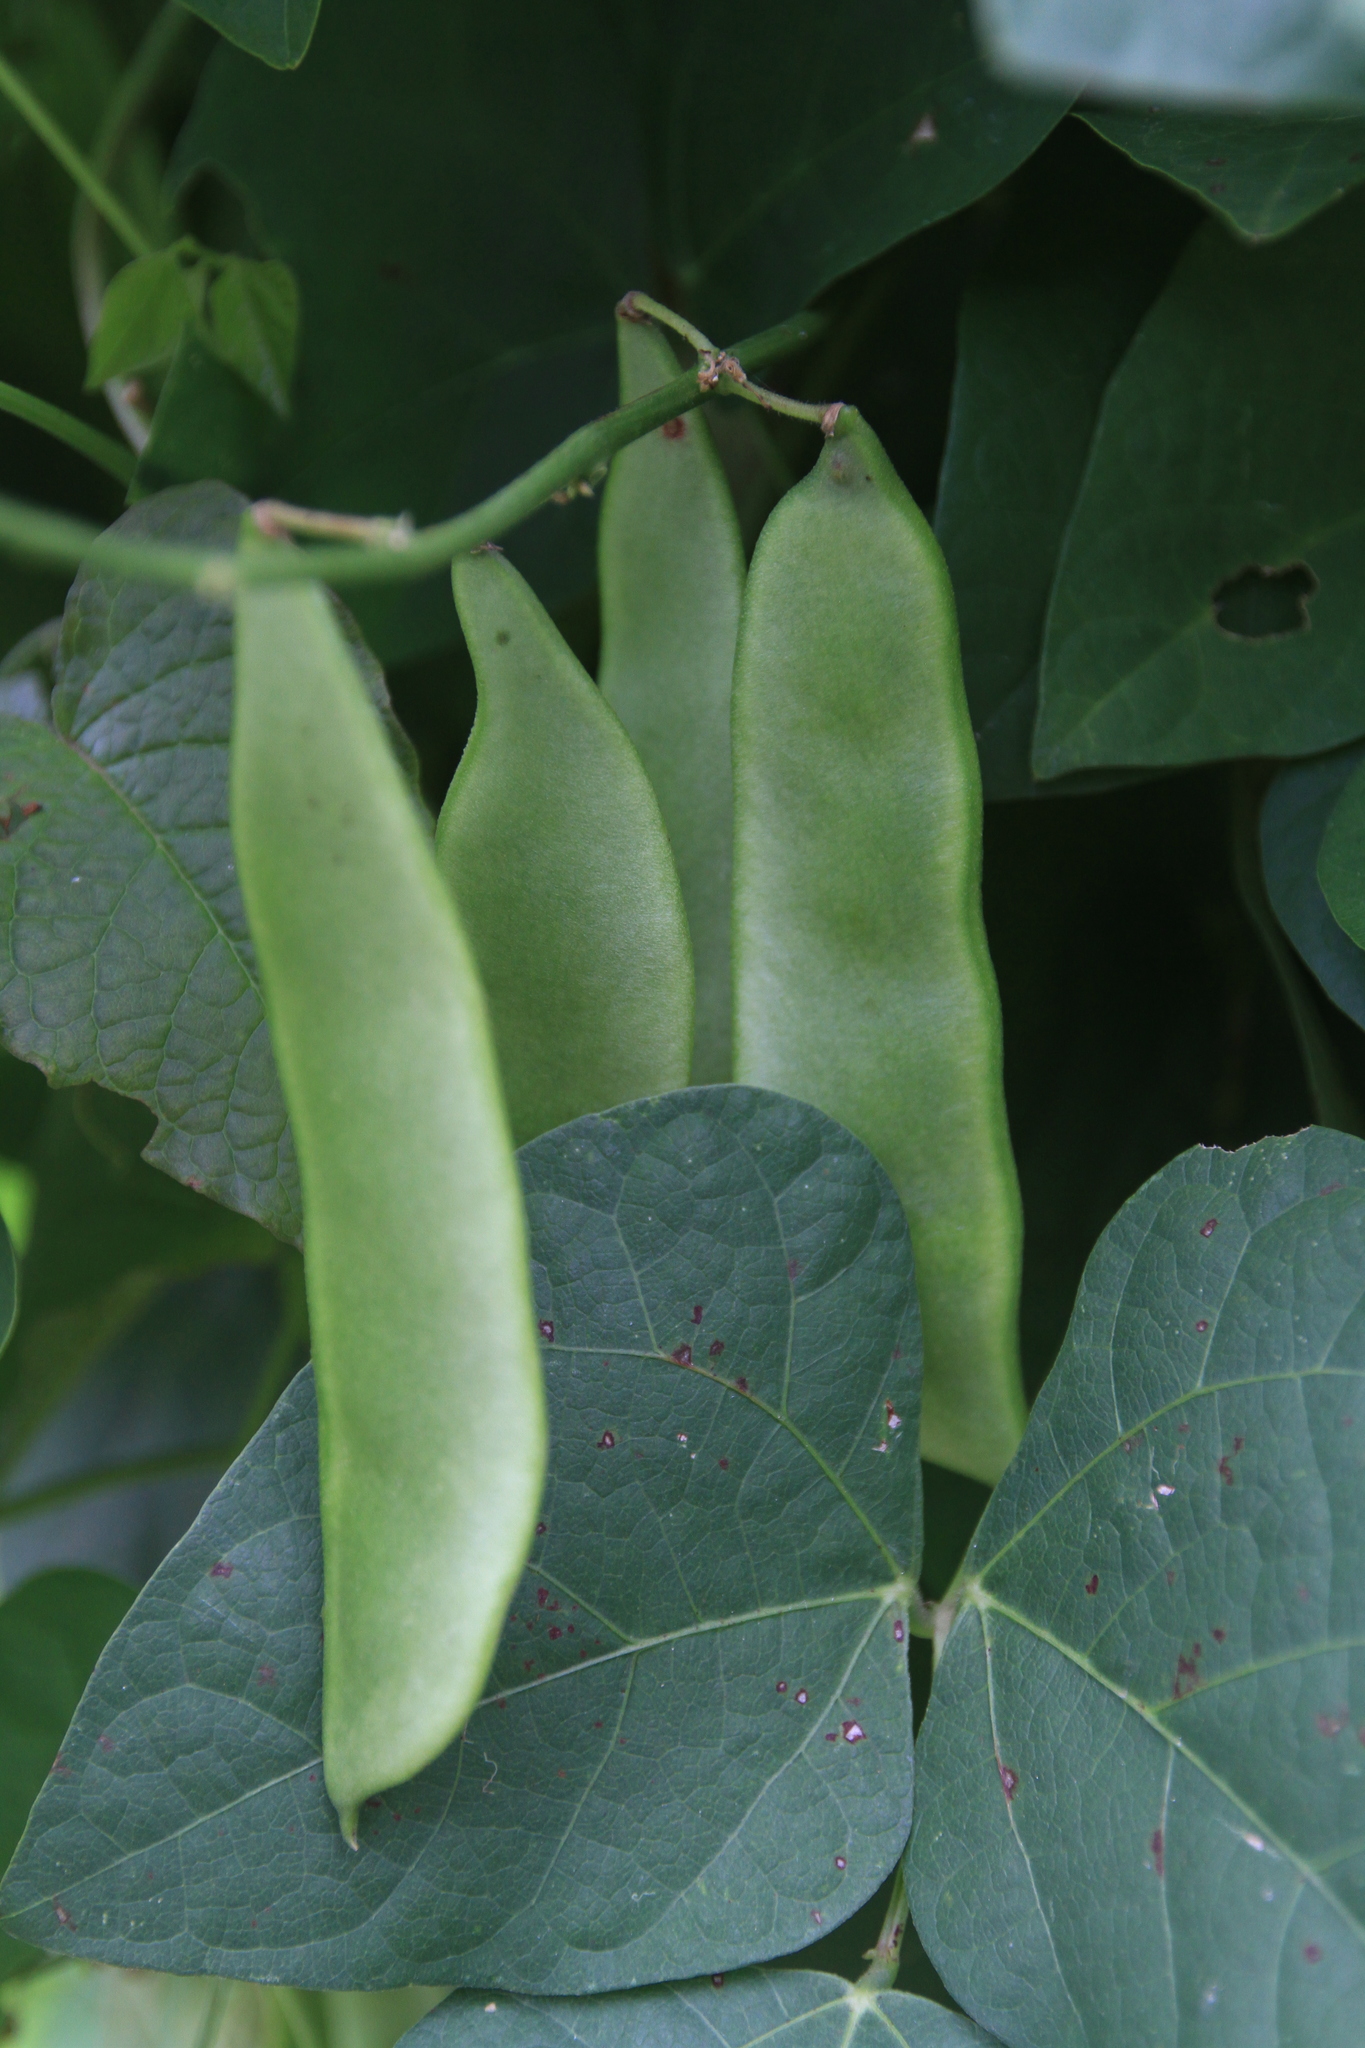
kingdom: Plantae
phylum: Tracheophyta
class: Magnoliopsida
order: Fabales
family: Fabaceae
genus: Lablab
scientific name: Lablab purpureus
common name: Lablab-bean
